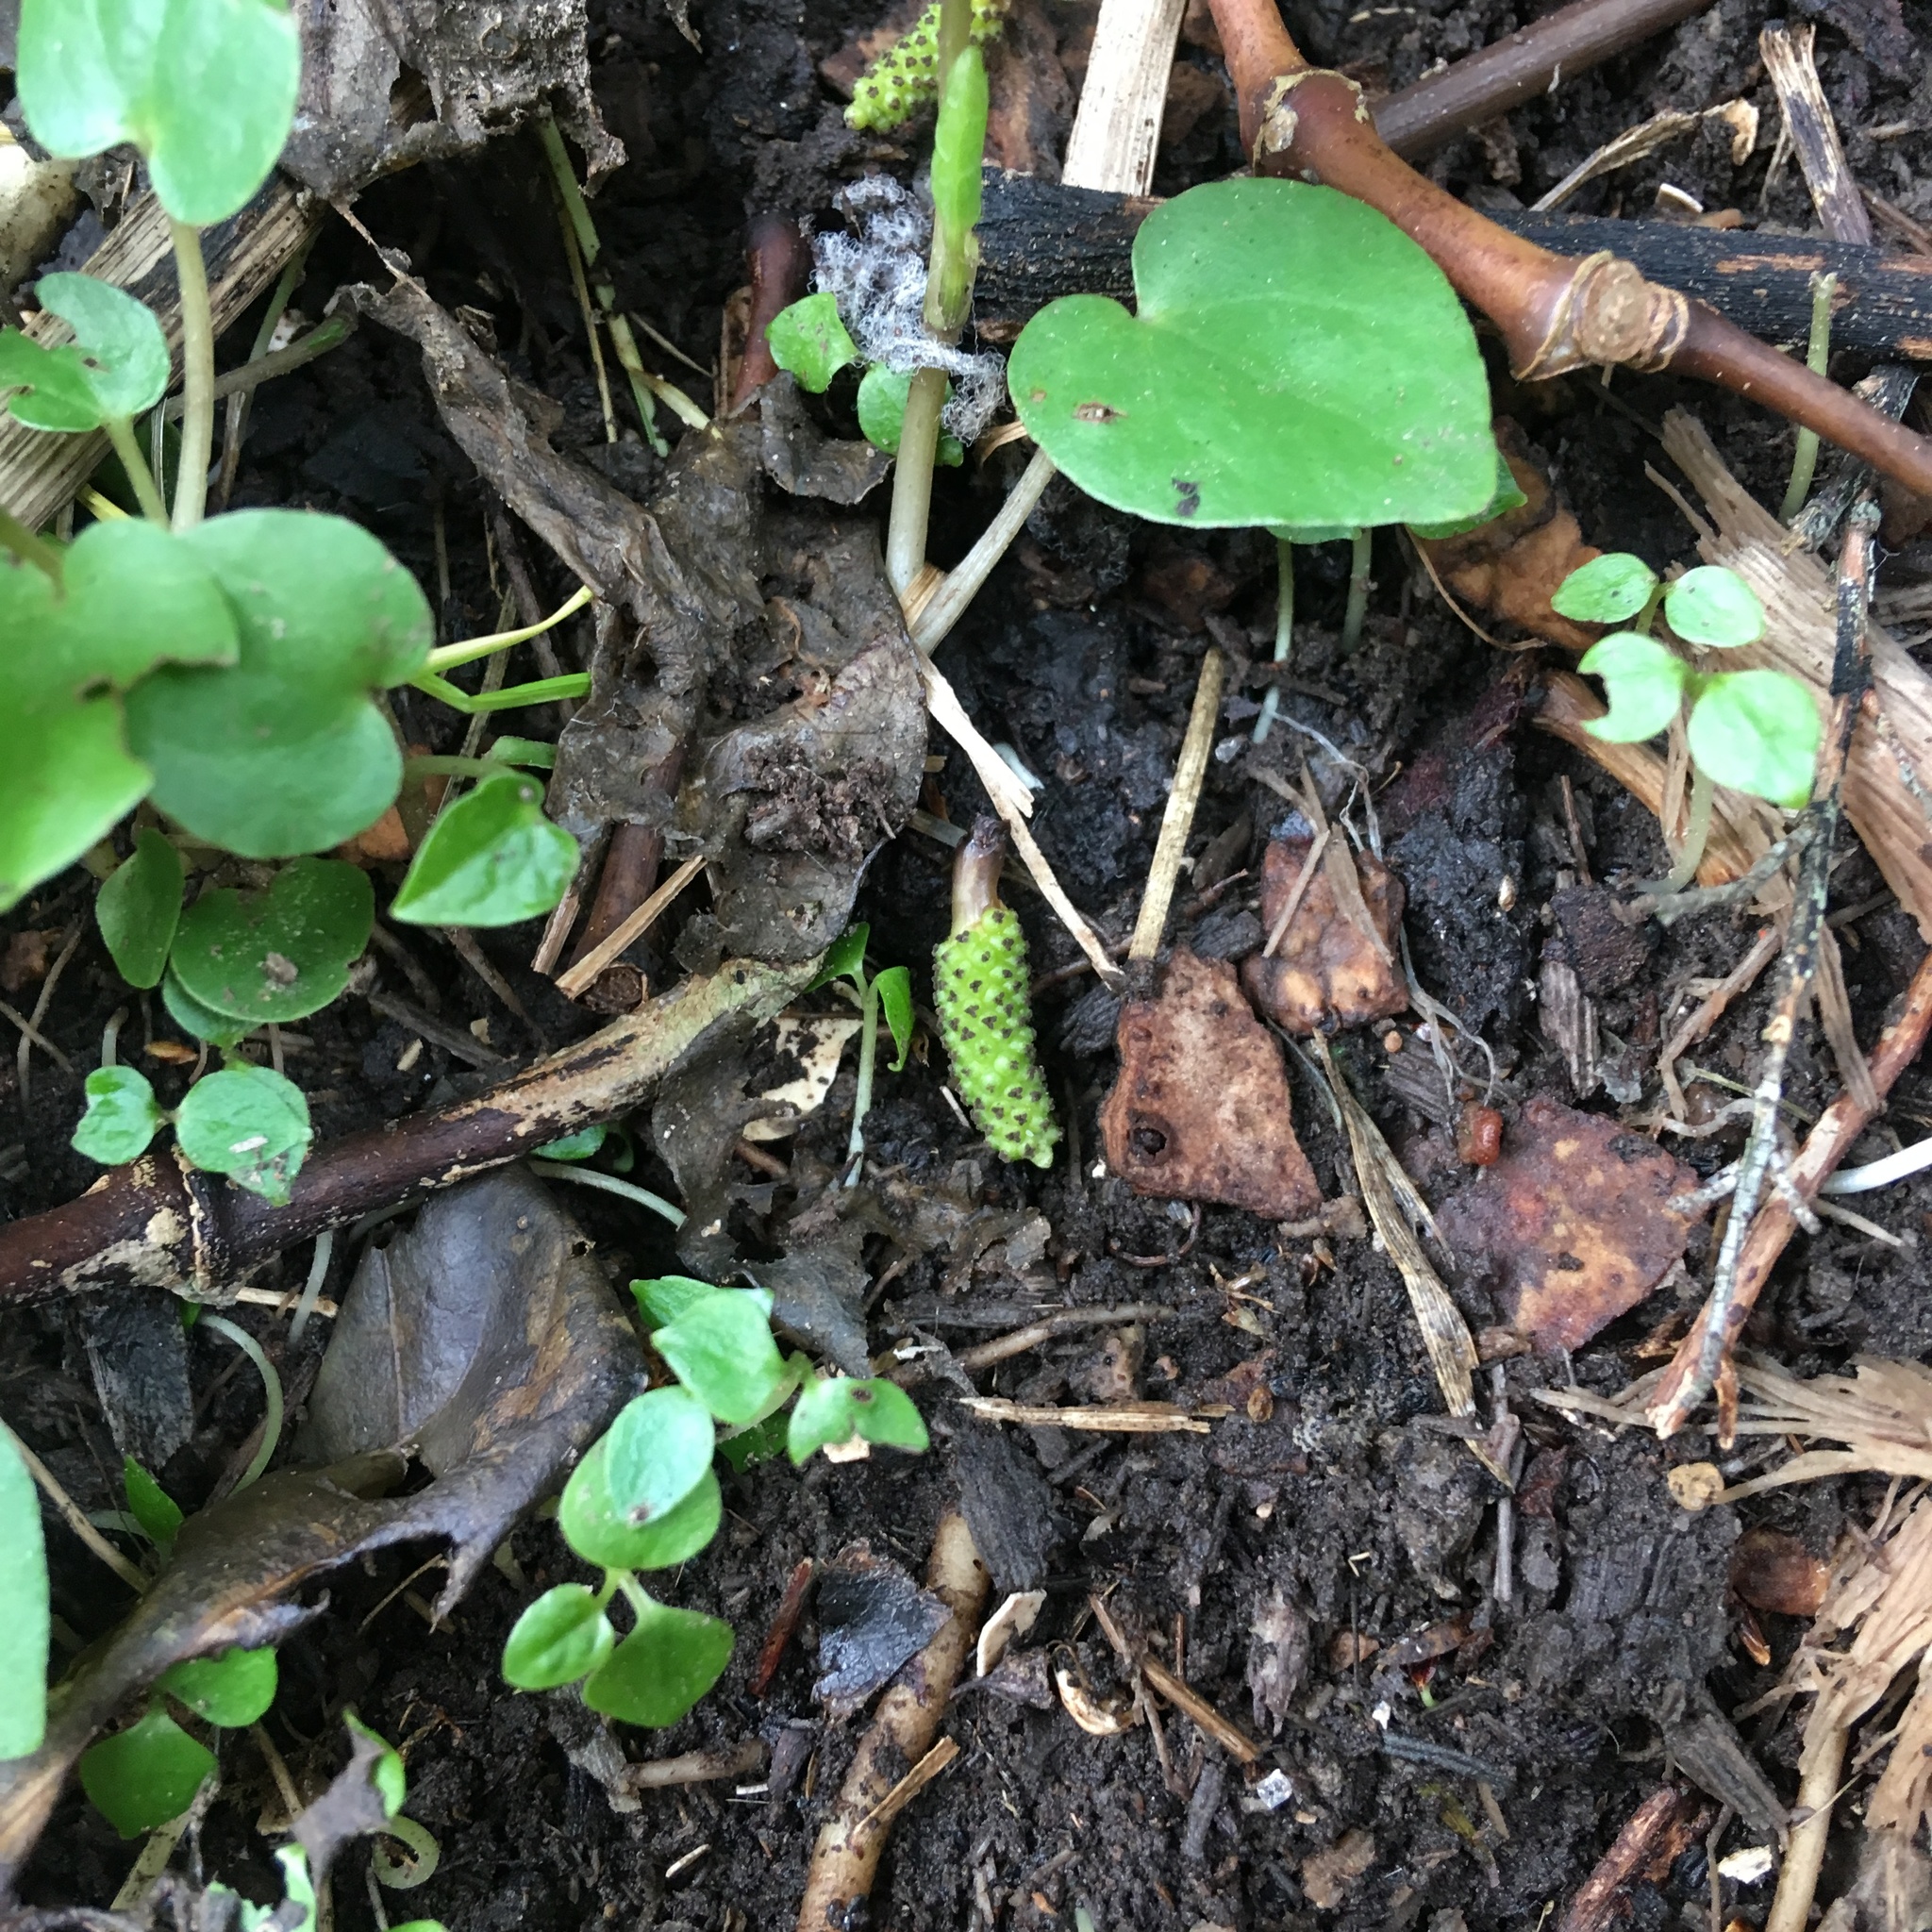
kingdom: Plantae
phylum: Tracheophyta
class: Magnoliopsida
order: Piperales
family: Piperaceae
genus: Macropiper
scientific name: Macropiper excelsum
